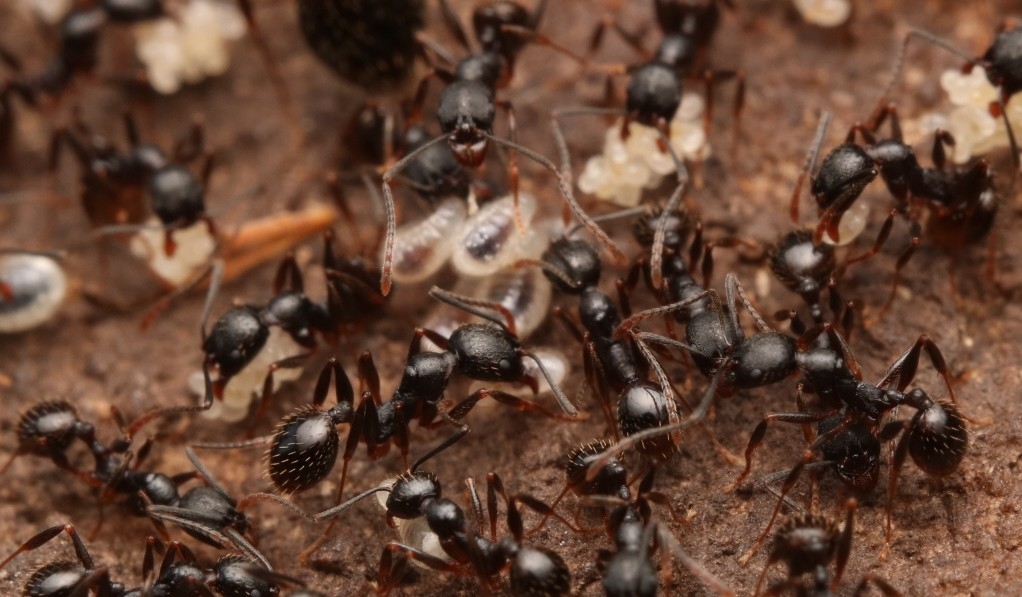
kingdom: Animalia
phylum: Arthropoda
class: Insecta
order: Hymenoptera
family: Formicidae
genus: Aphaenogaster
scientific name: Aphaenogaster picea
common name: Pitch-black collared ant
